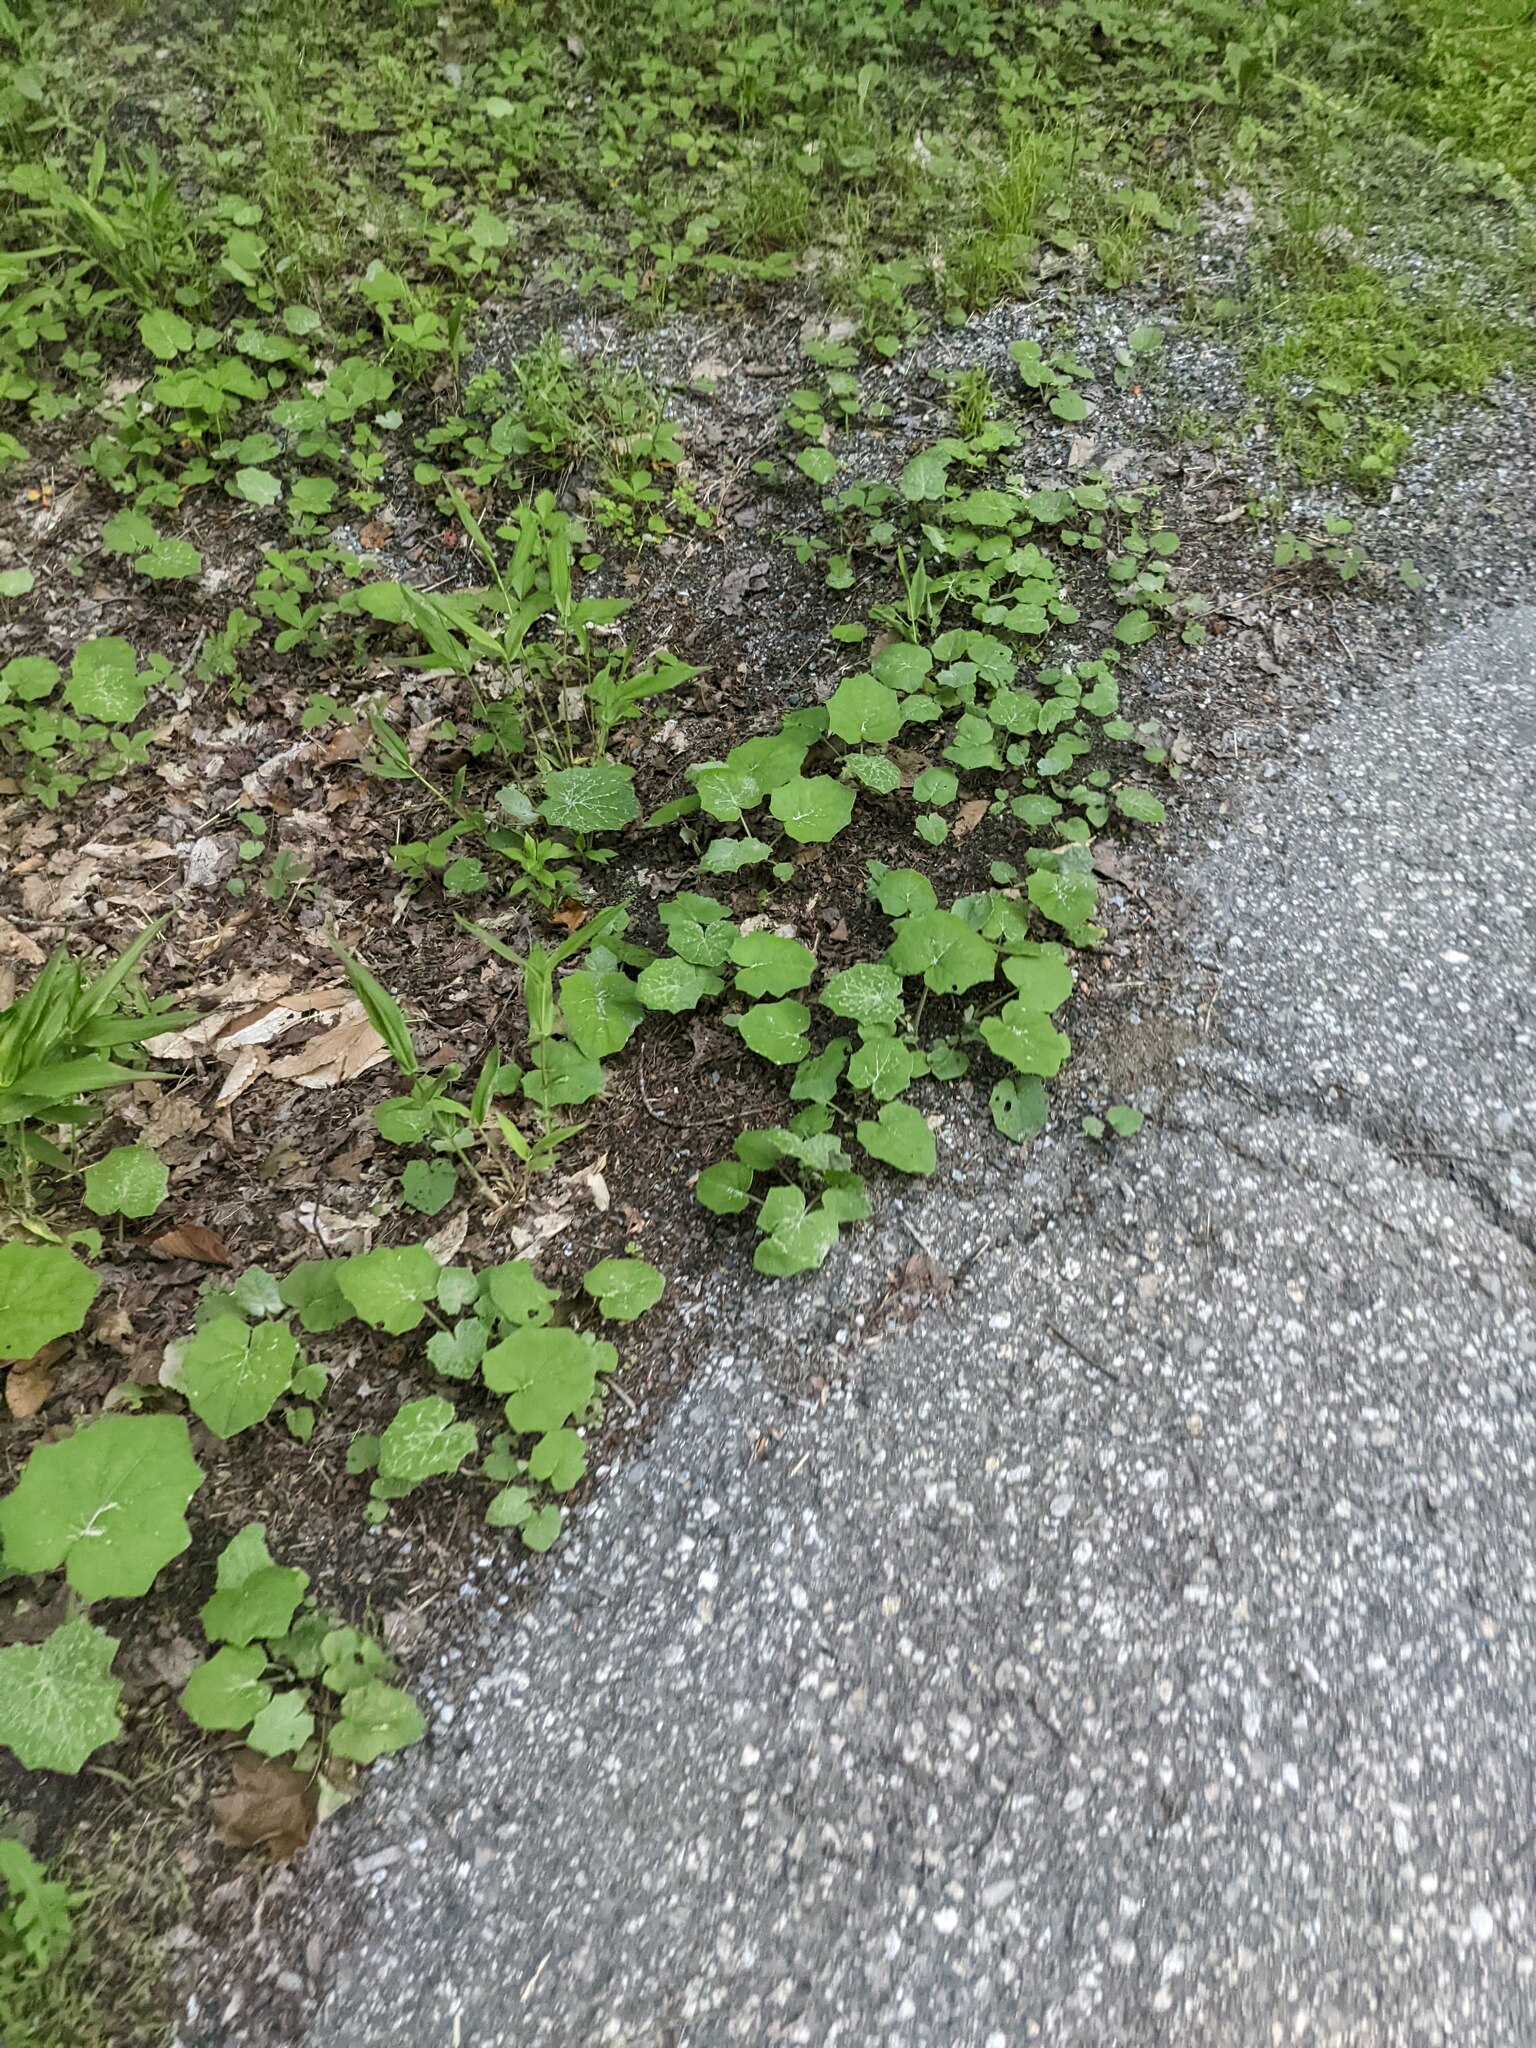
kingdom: Plantae
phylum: Tracheophyta
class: Magnoliopsida
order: Asterales
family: Asteraceae
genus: Tussilago
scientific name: Tussilago farfara
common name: Coltsfoot
